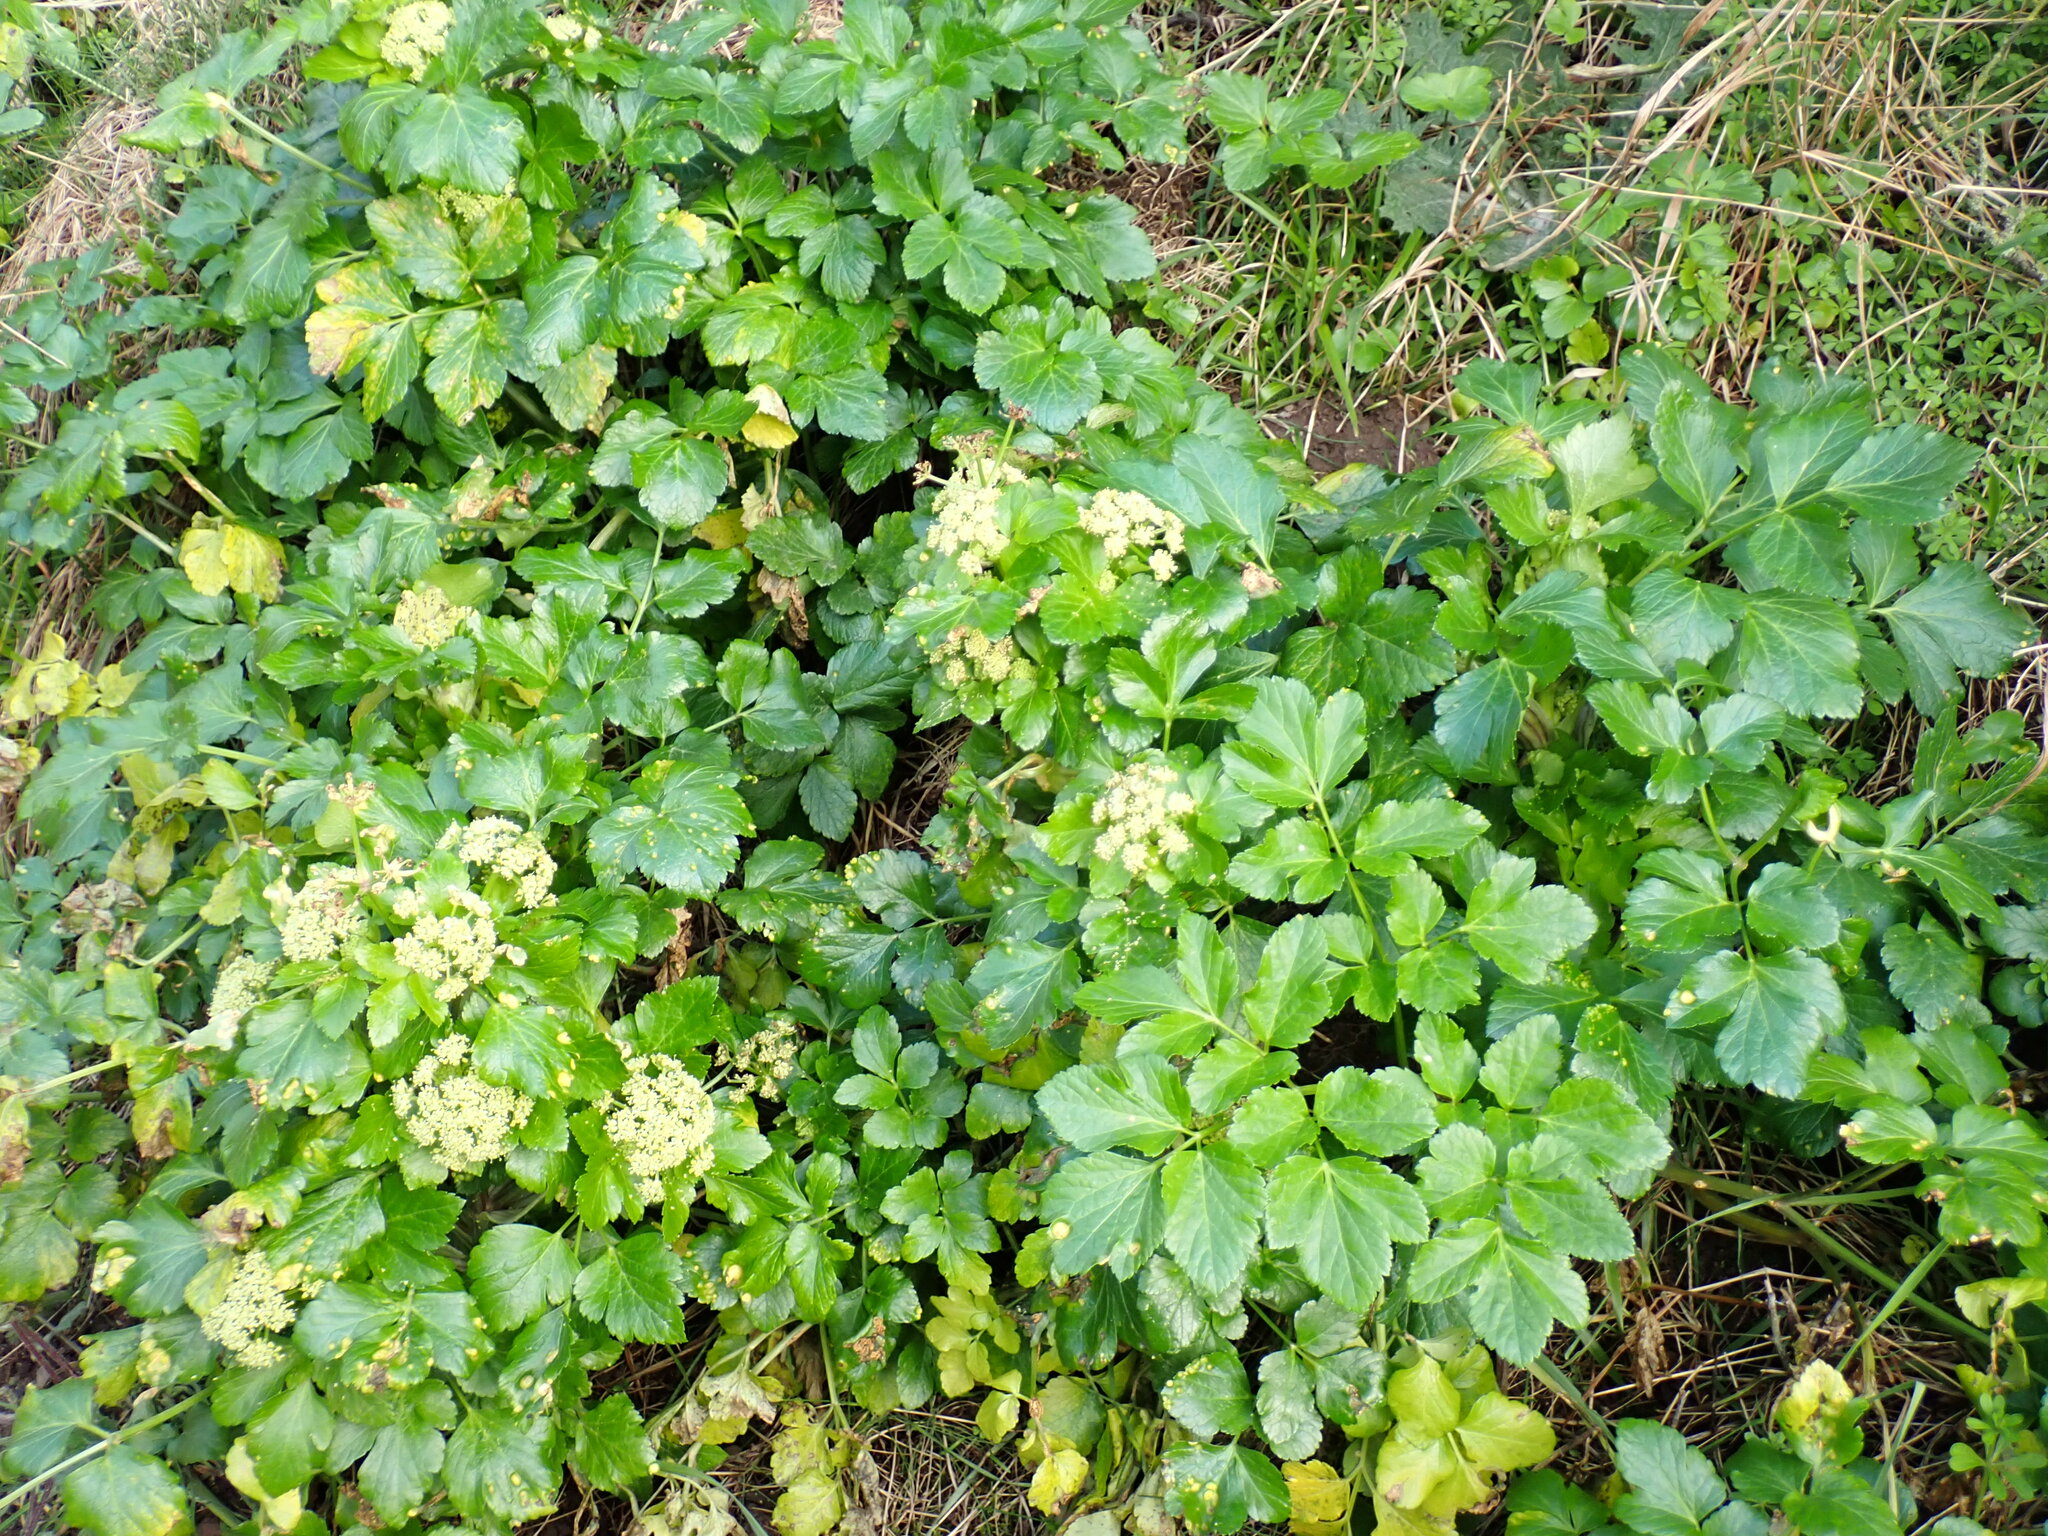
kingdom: Plantae
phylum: Tracheophyta
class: Magnoliopsida
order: Apiales
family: Apiaceae
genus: Smyrnium
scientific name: Smyrnium olusatrum
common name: Alexanders
